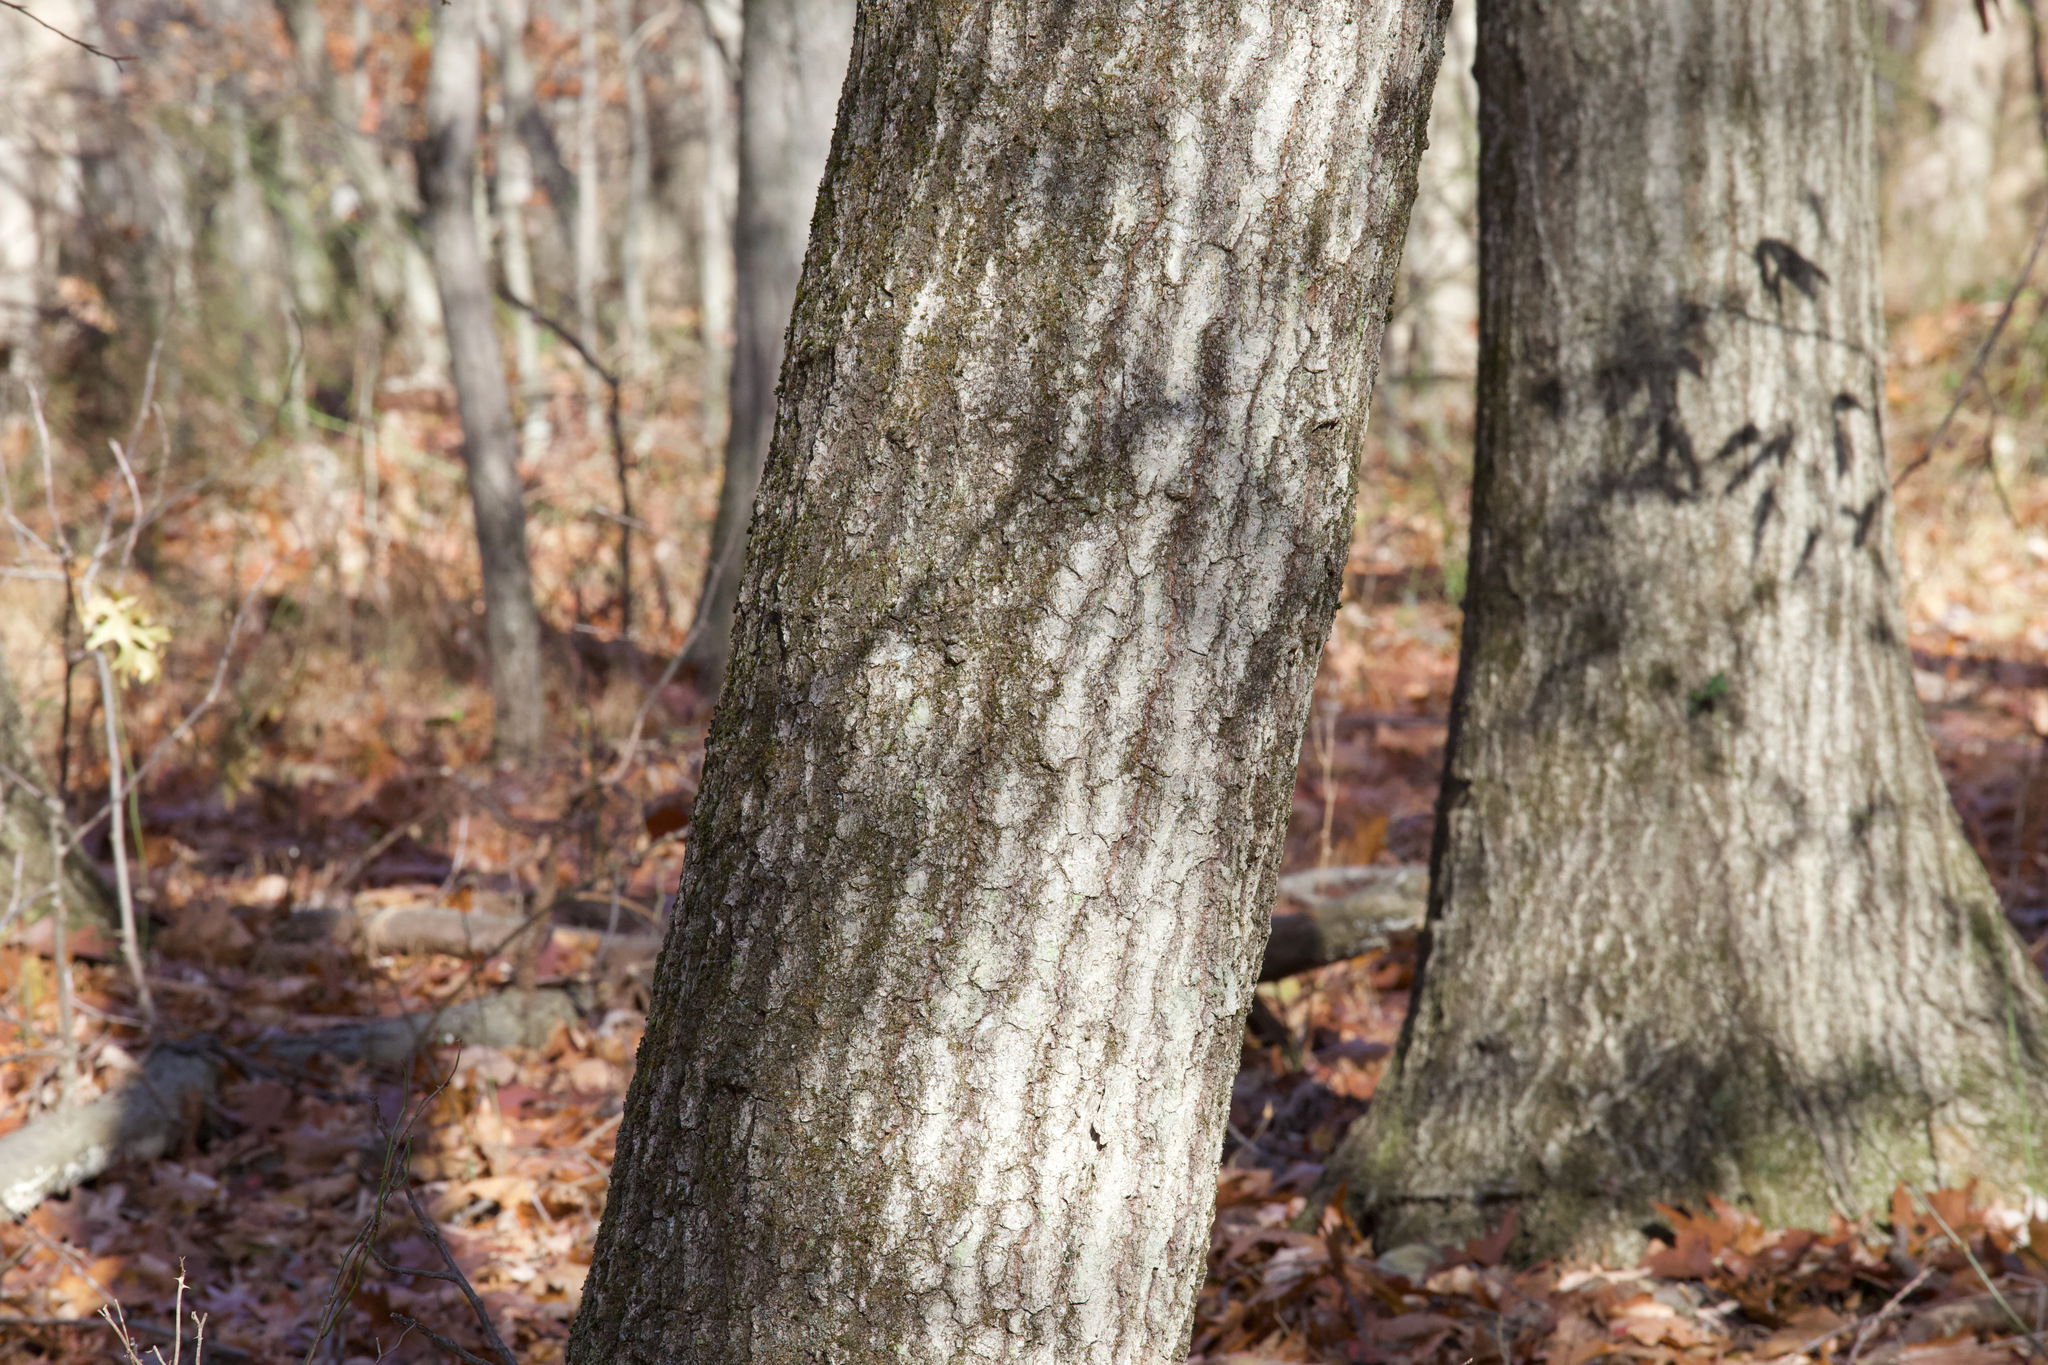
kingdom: Plantae
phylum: Tracheophyta
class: Magnoliopsida
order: Fagales
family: Fagaceae
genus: Quercus
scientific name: Quercus rubra
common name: Red oak
